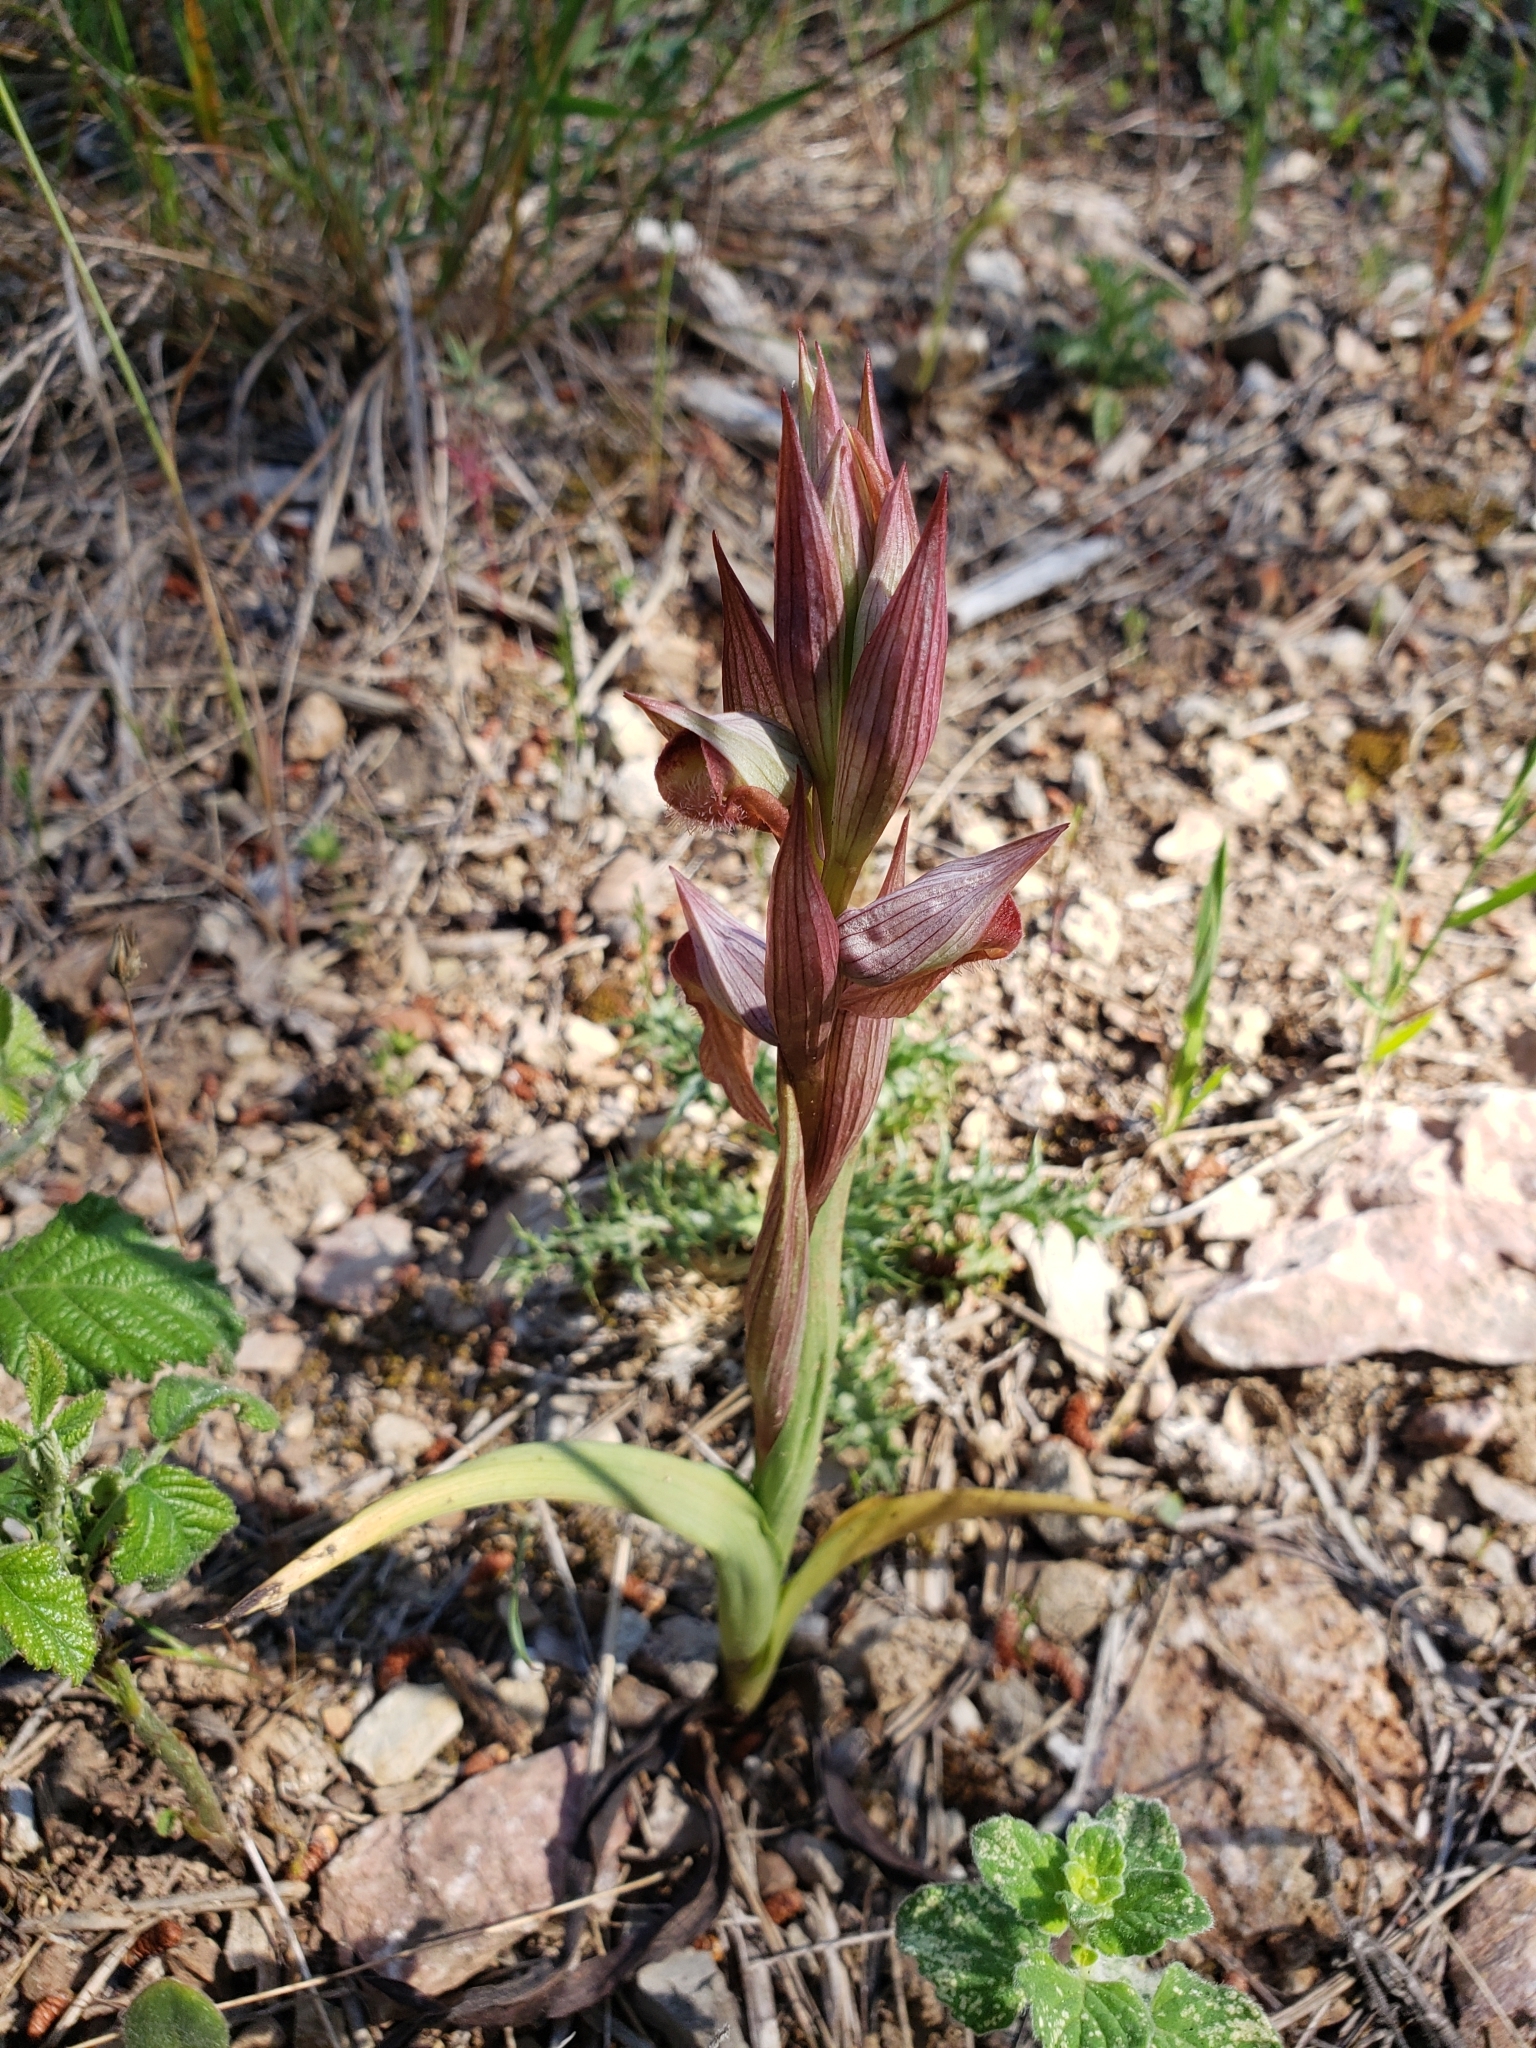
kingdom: Plantae
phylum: Tracheophyta
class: Liliopsida
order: Asparagales
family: Orchidaceae
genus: Serapias
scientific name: Serapias vomeracea
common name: Long-lipped tongue-orchid
